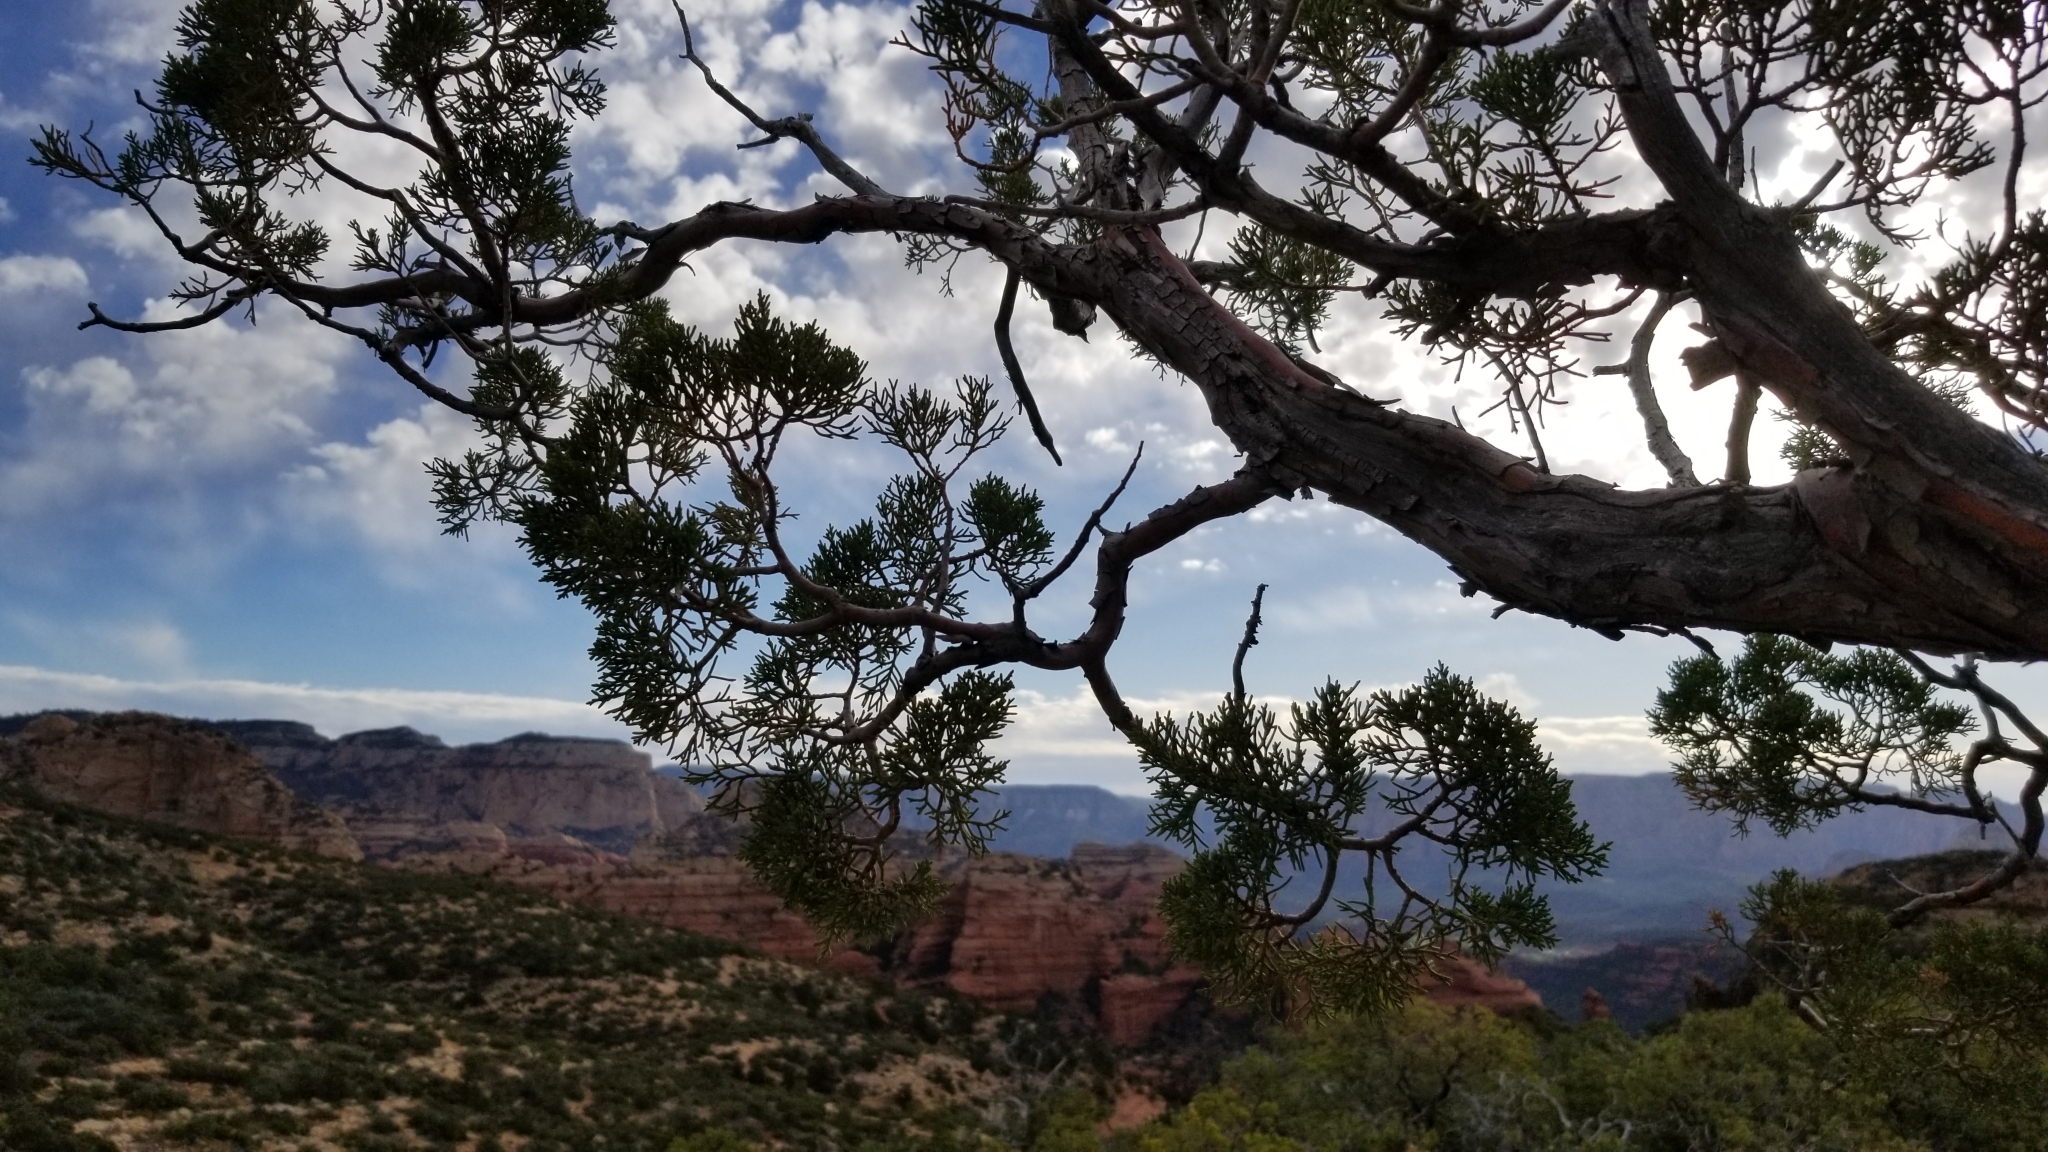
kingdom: Plantae
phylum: Tracheophyta
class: Pinopsida
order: Pinales
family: Cupressaceae
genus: Juniperus
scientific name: Juniperus deppeana
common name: Alligator juniper
